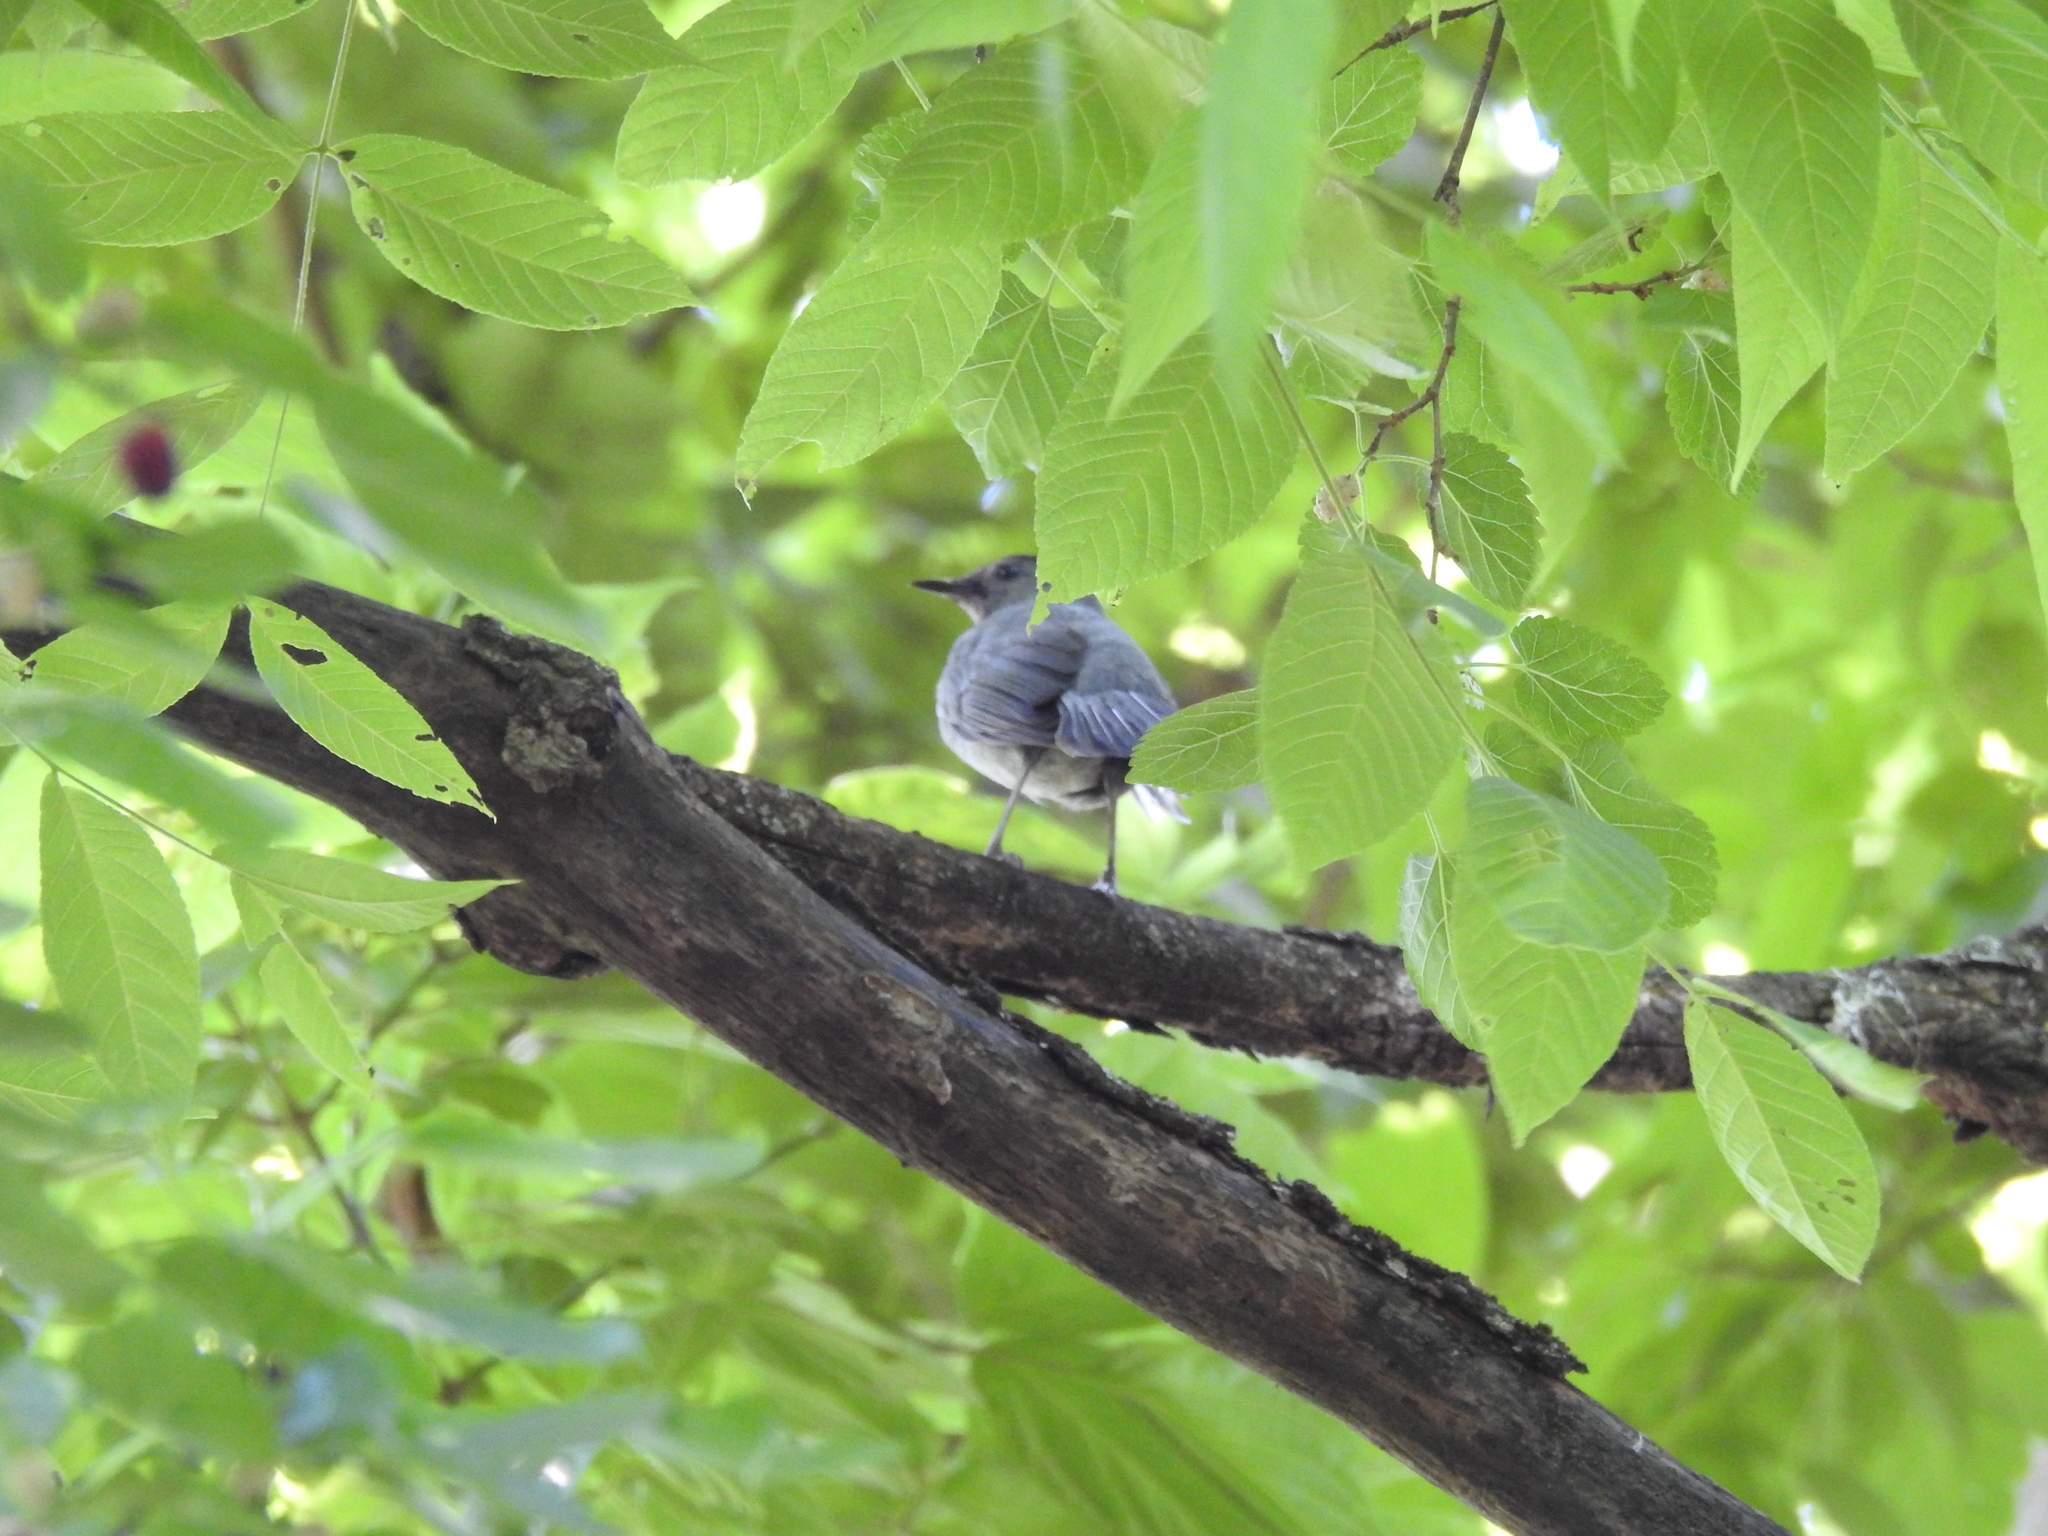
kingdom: Animalia
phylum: Chordata
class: Aves
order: Passeriformes
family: Mimidae
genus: Dumetella
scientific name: Dumetella carolinensis
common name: Gray catbird
